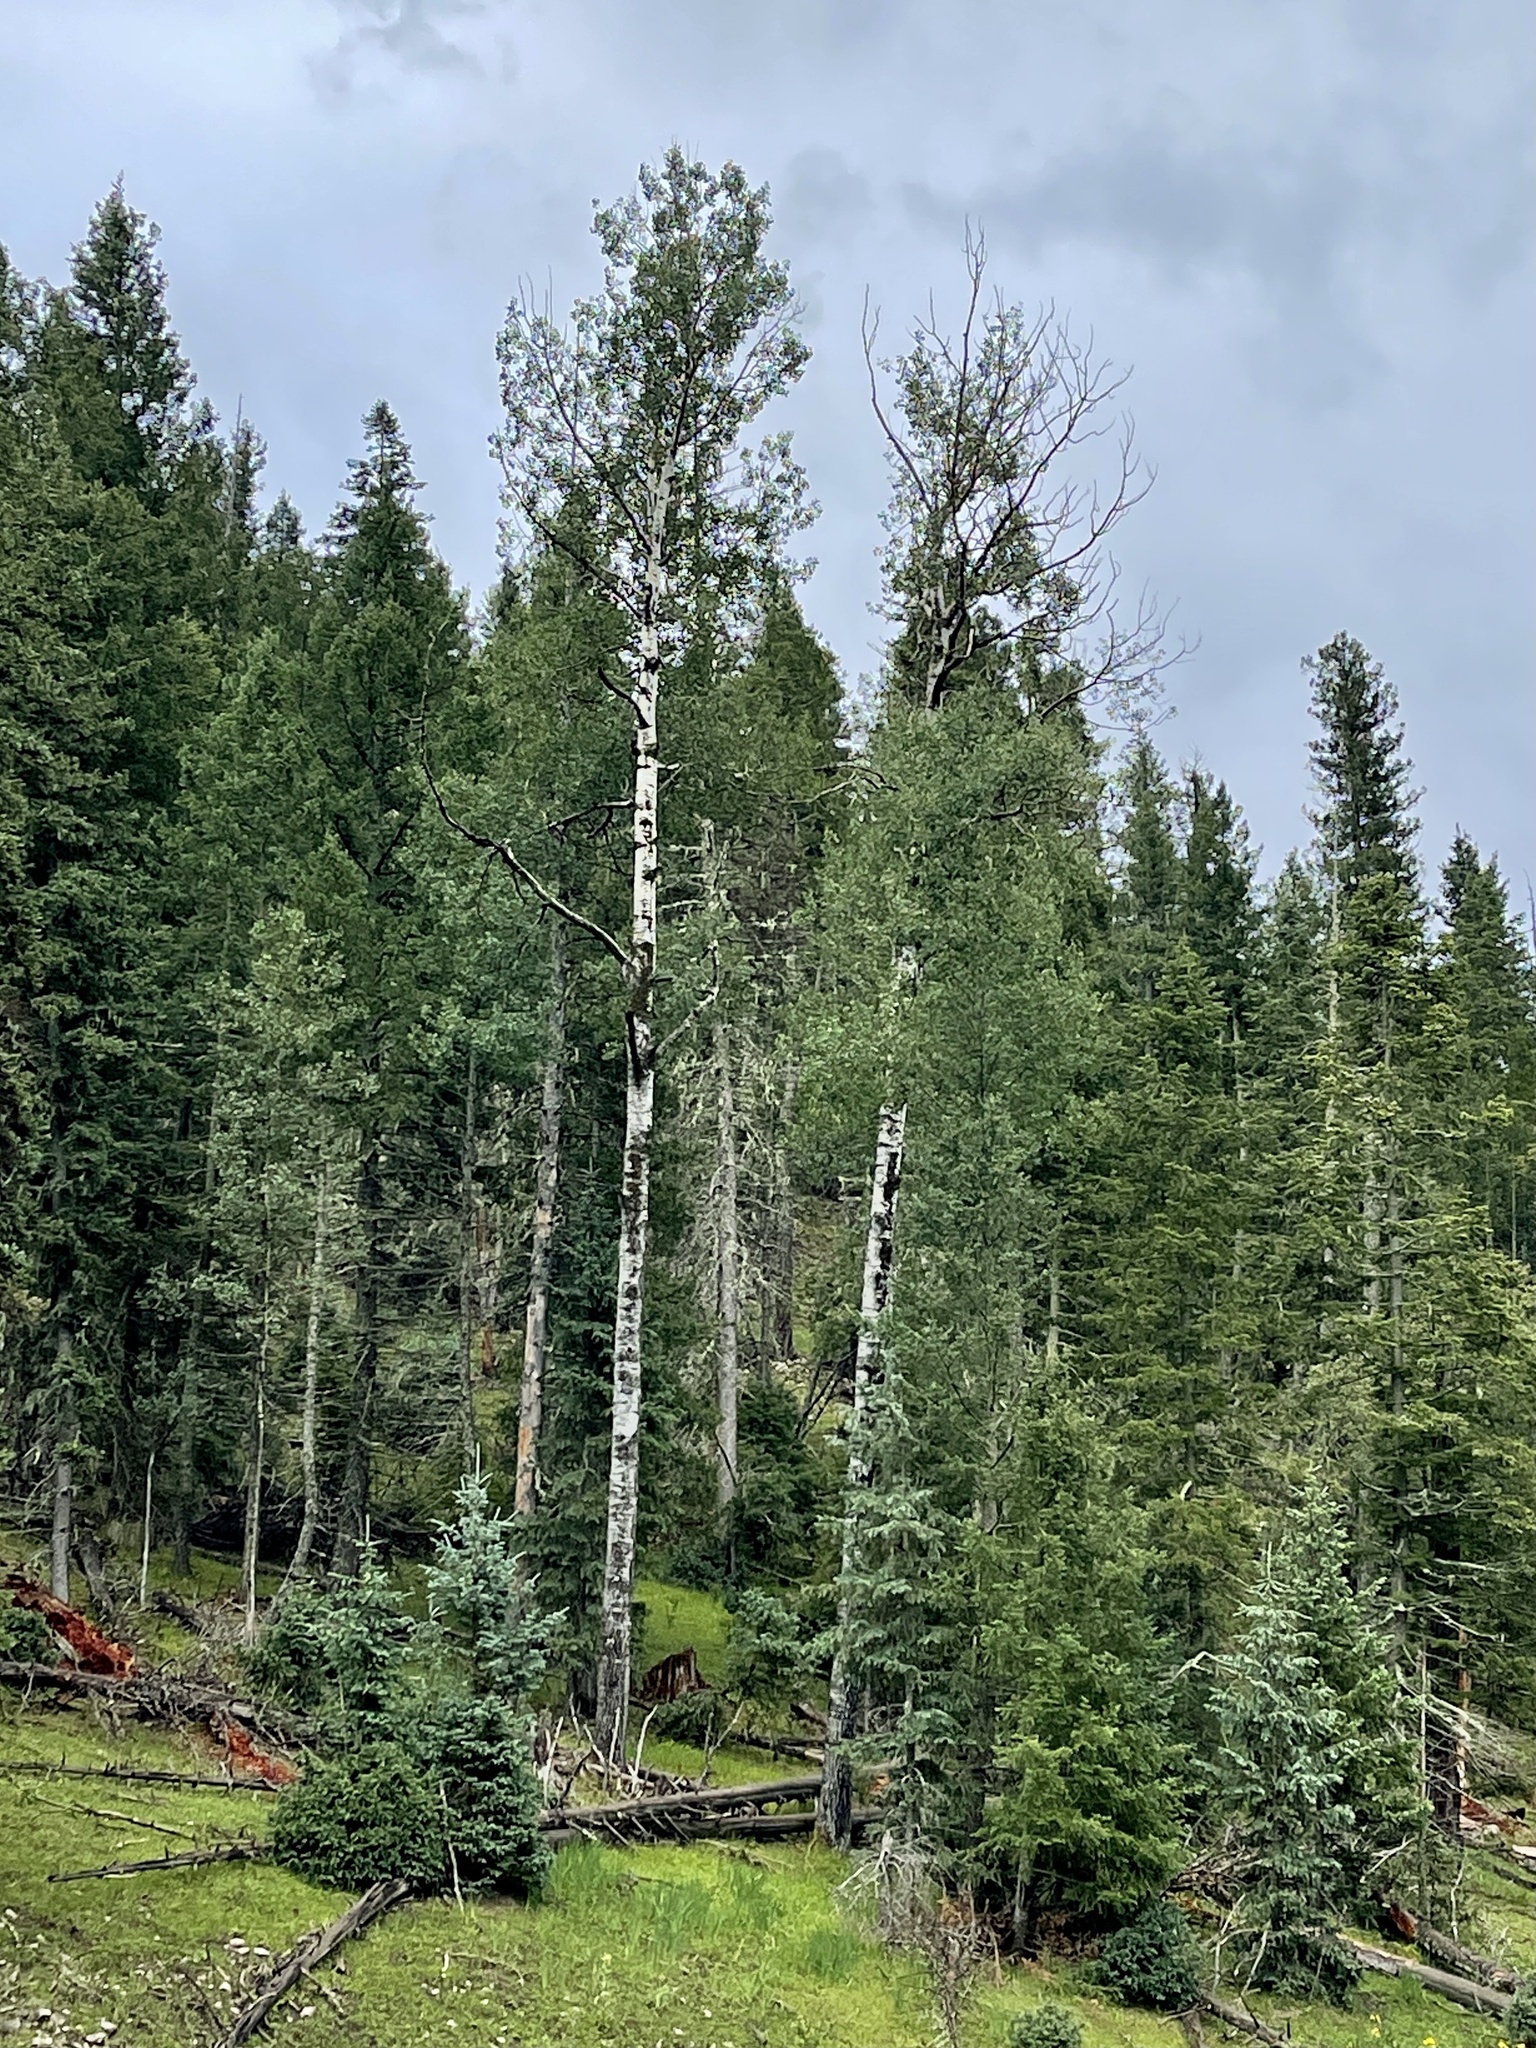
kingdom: Plantae
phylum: Tracheophyta
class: Magnoliopsida
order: Malpighiales
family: Salicaceae
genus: Populus
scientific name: Populus tremuloides
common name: Quaking aspen
